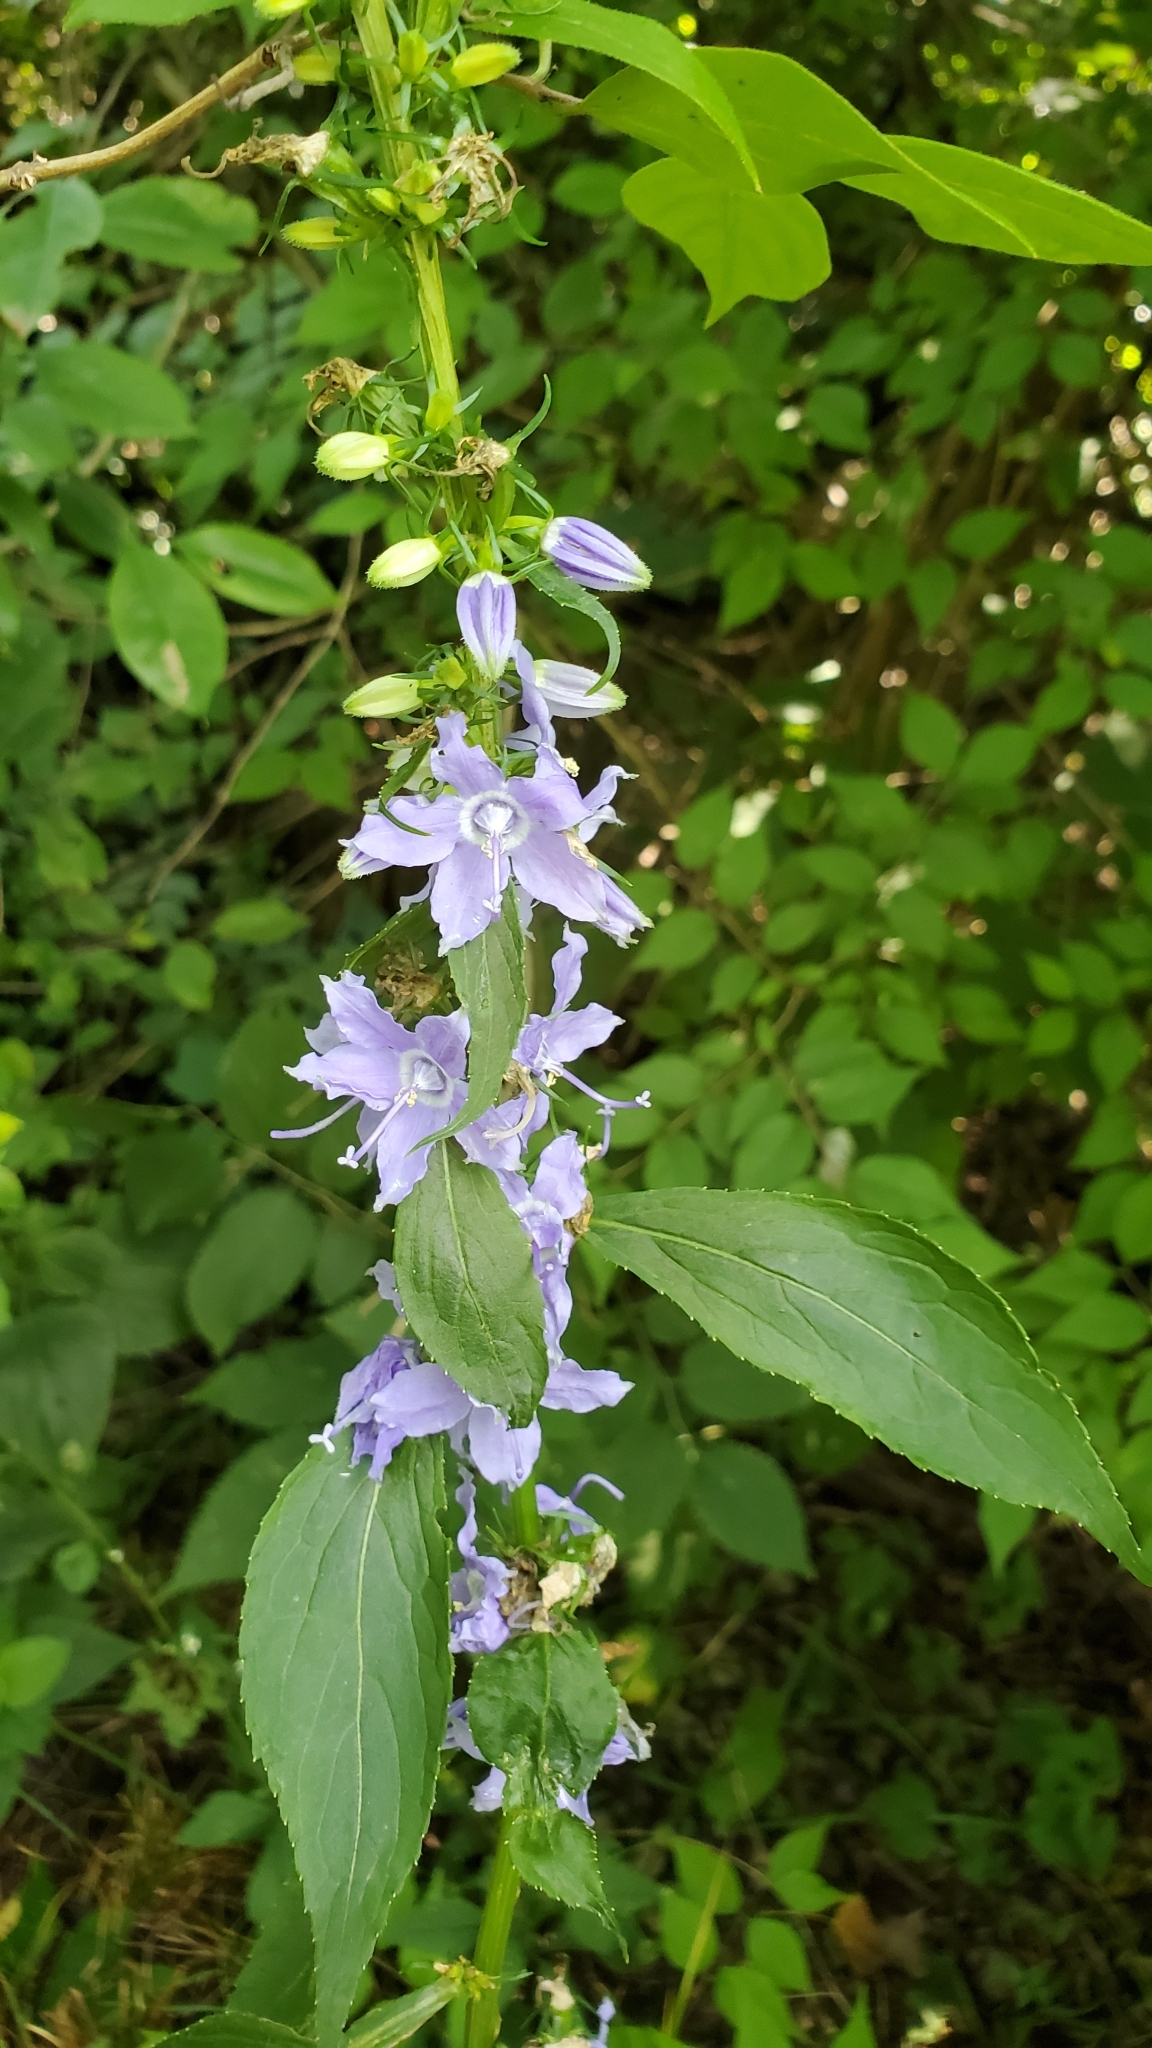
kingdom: Plantae
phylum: Tracheophyta
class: Magnoliopsida
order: Asterales
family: Campanulaceae
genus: Campanulastrum
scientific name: Campanulastrum americanum
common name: American bellflower
